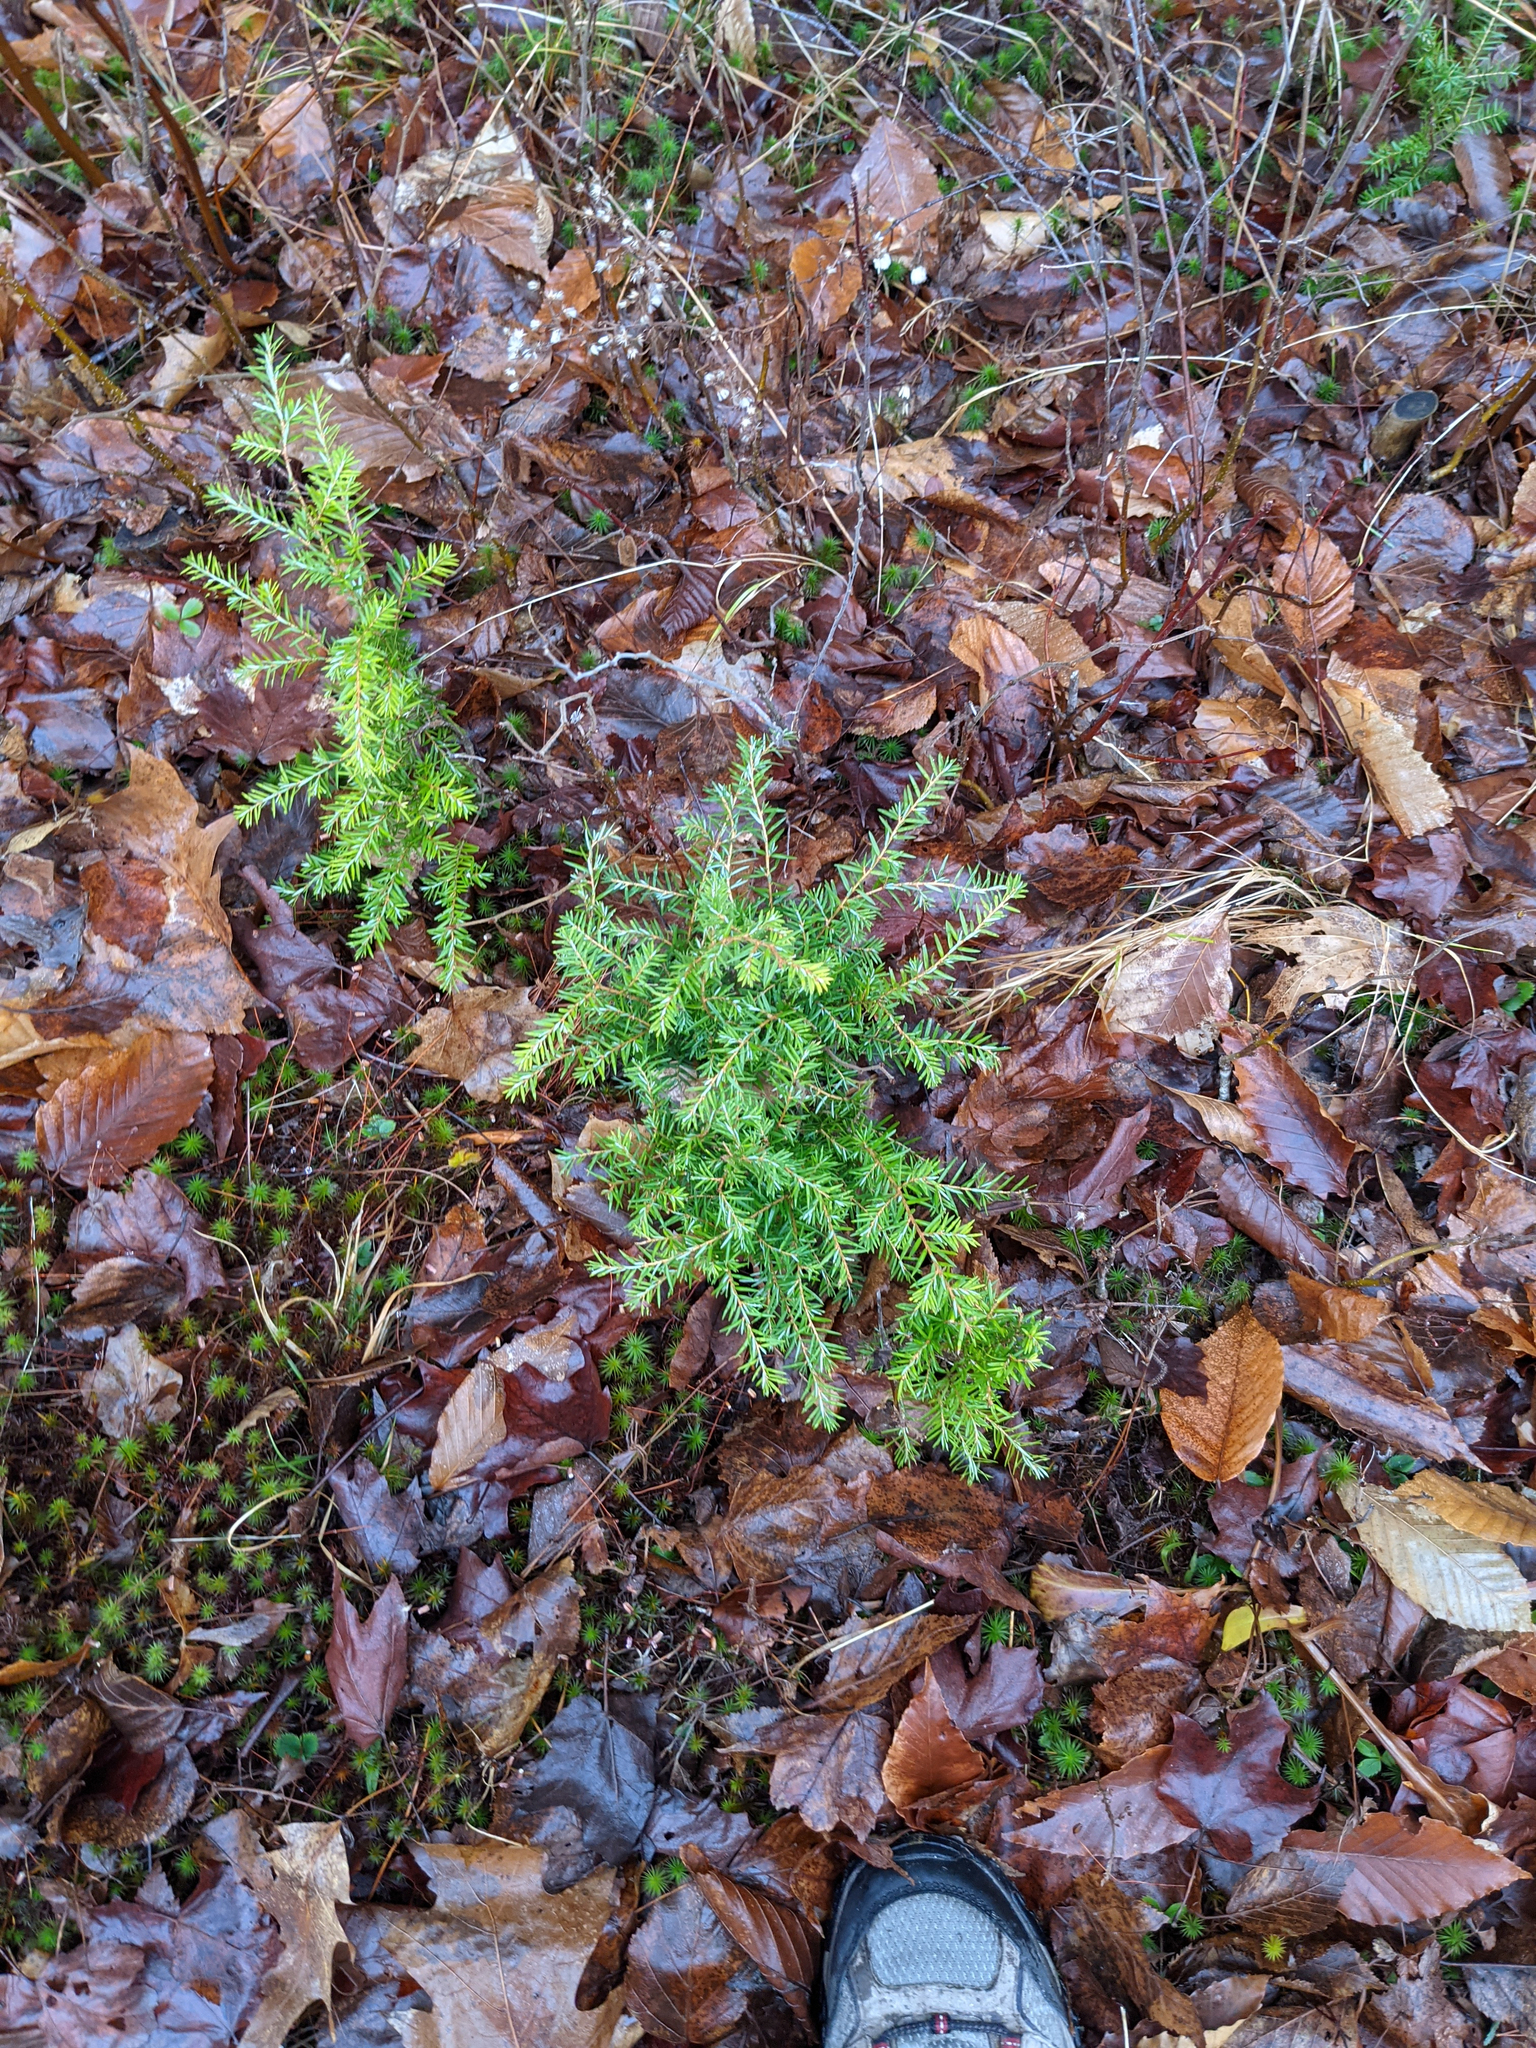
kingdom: Plantae
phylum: Tracheophyta
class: Pinopsida
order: Pinales
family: Pinaceae
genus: Tsuga
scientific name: Tsuga canadensis
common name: Eastern hemlock
